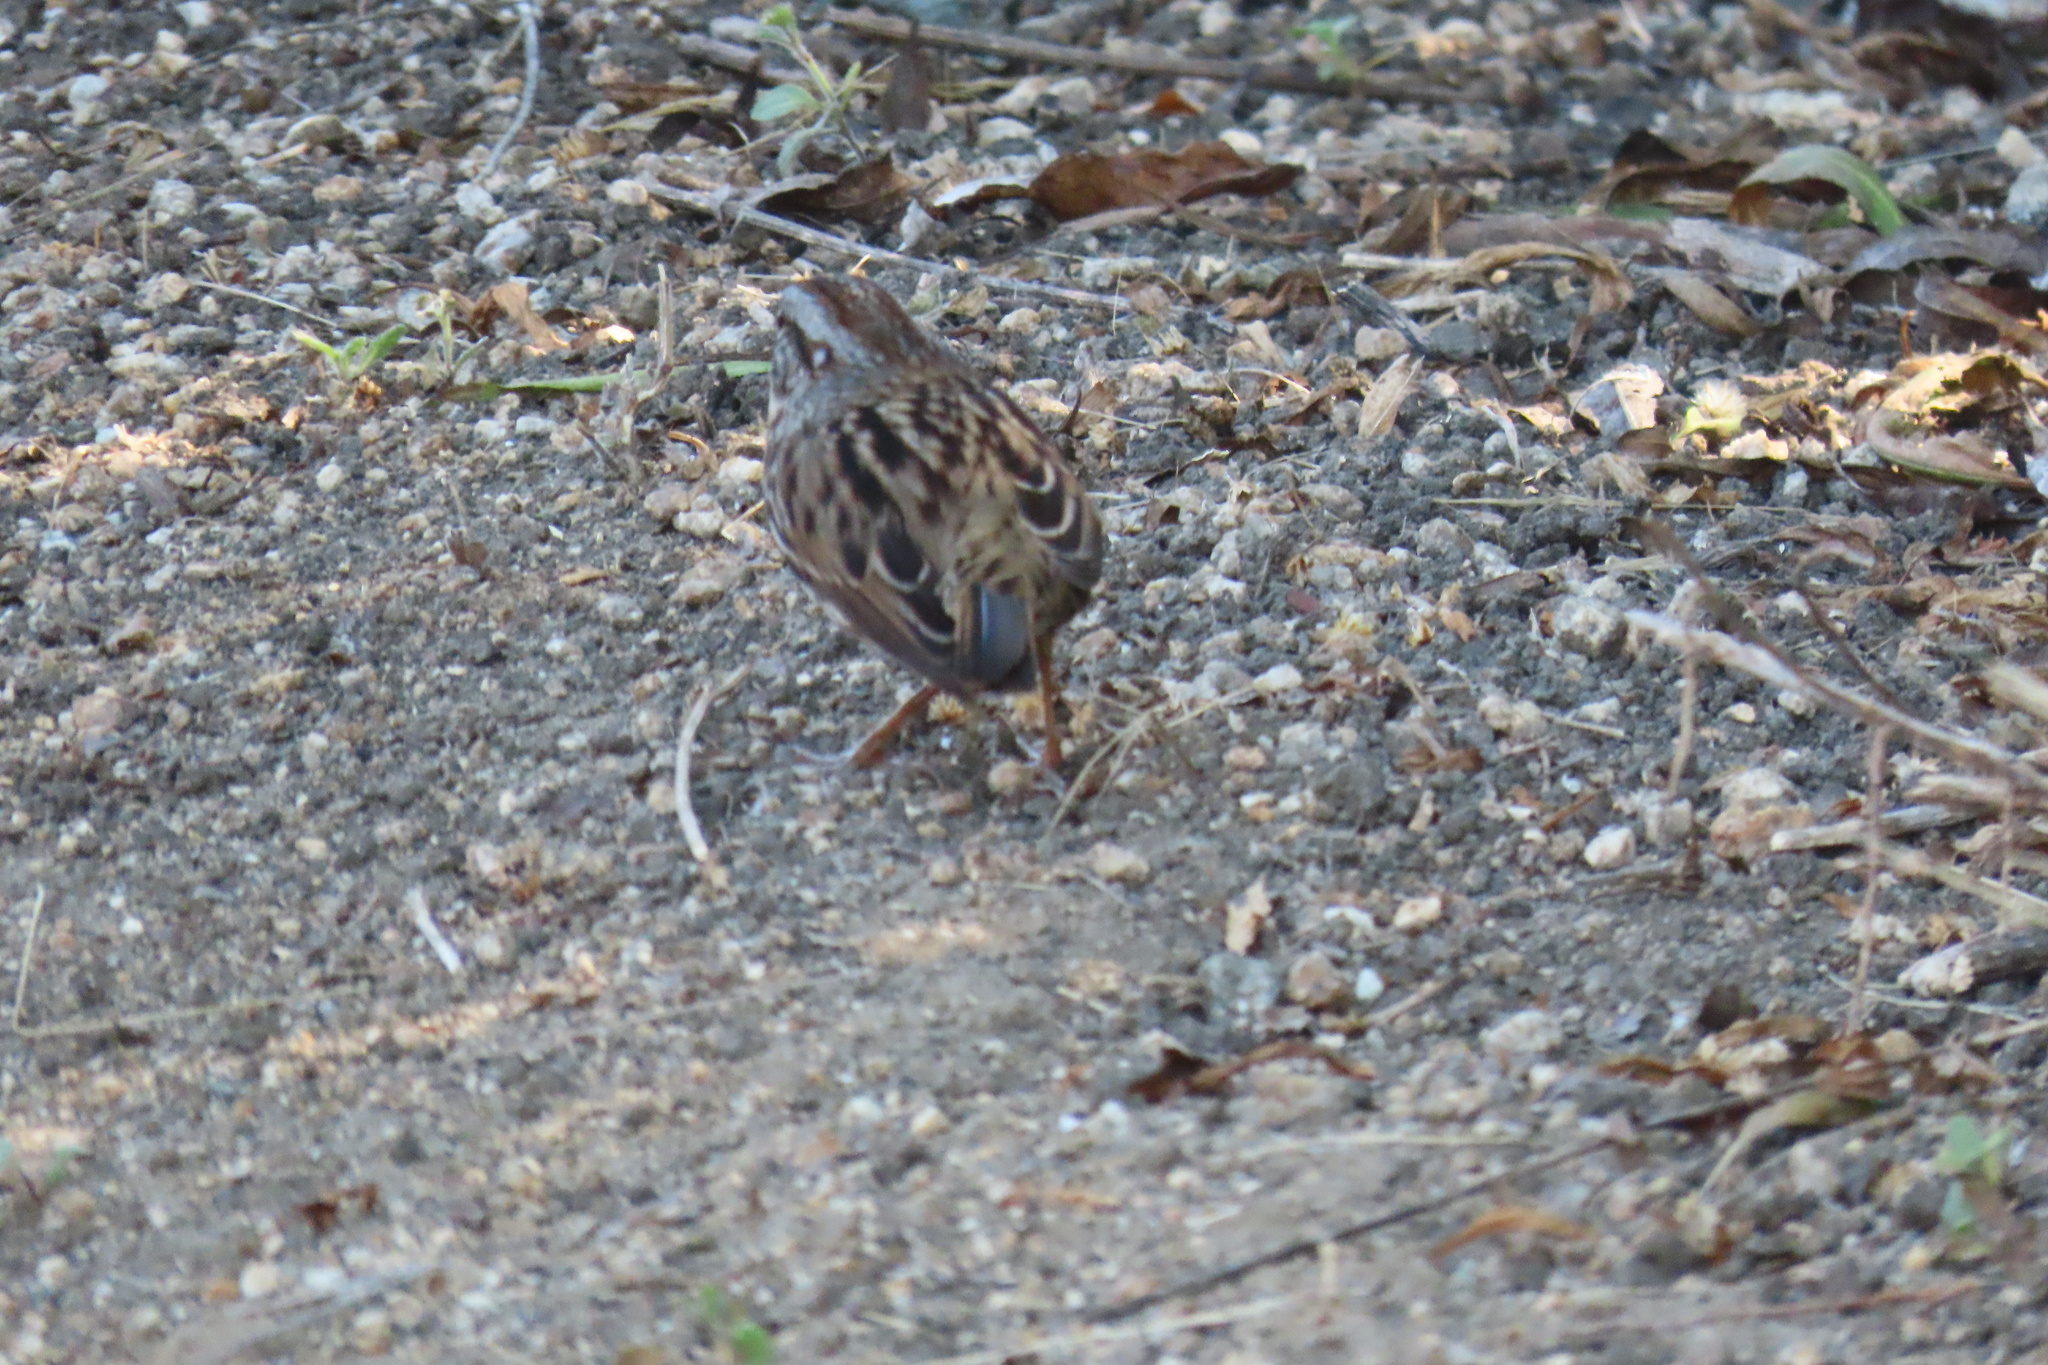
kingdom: Animalia
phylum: Chordata
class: Aves
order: Passeriformes
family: Passerellidae
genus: Melospiza
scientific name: Melospiza melodia
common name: Song sparrow
